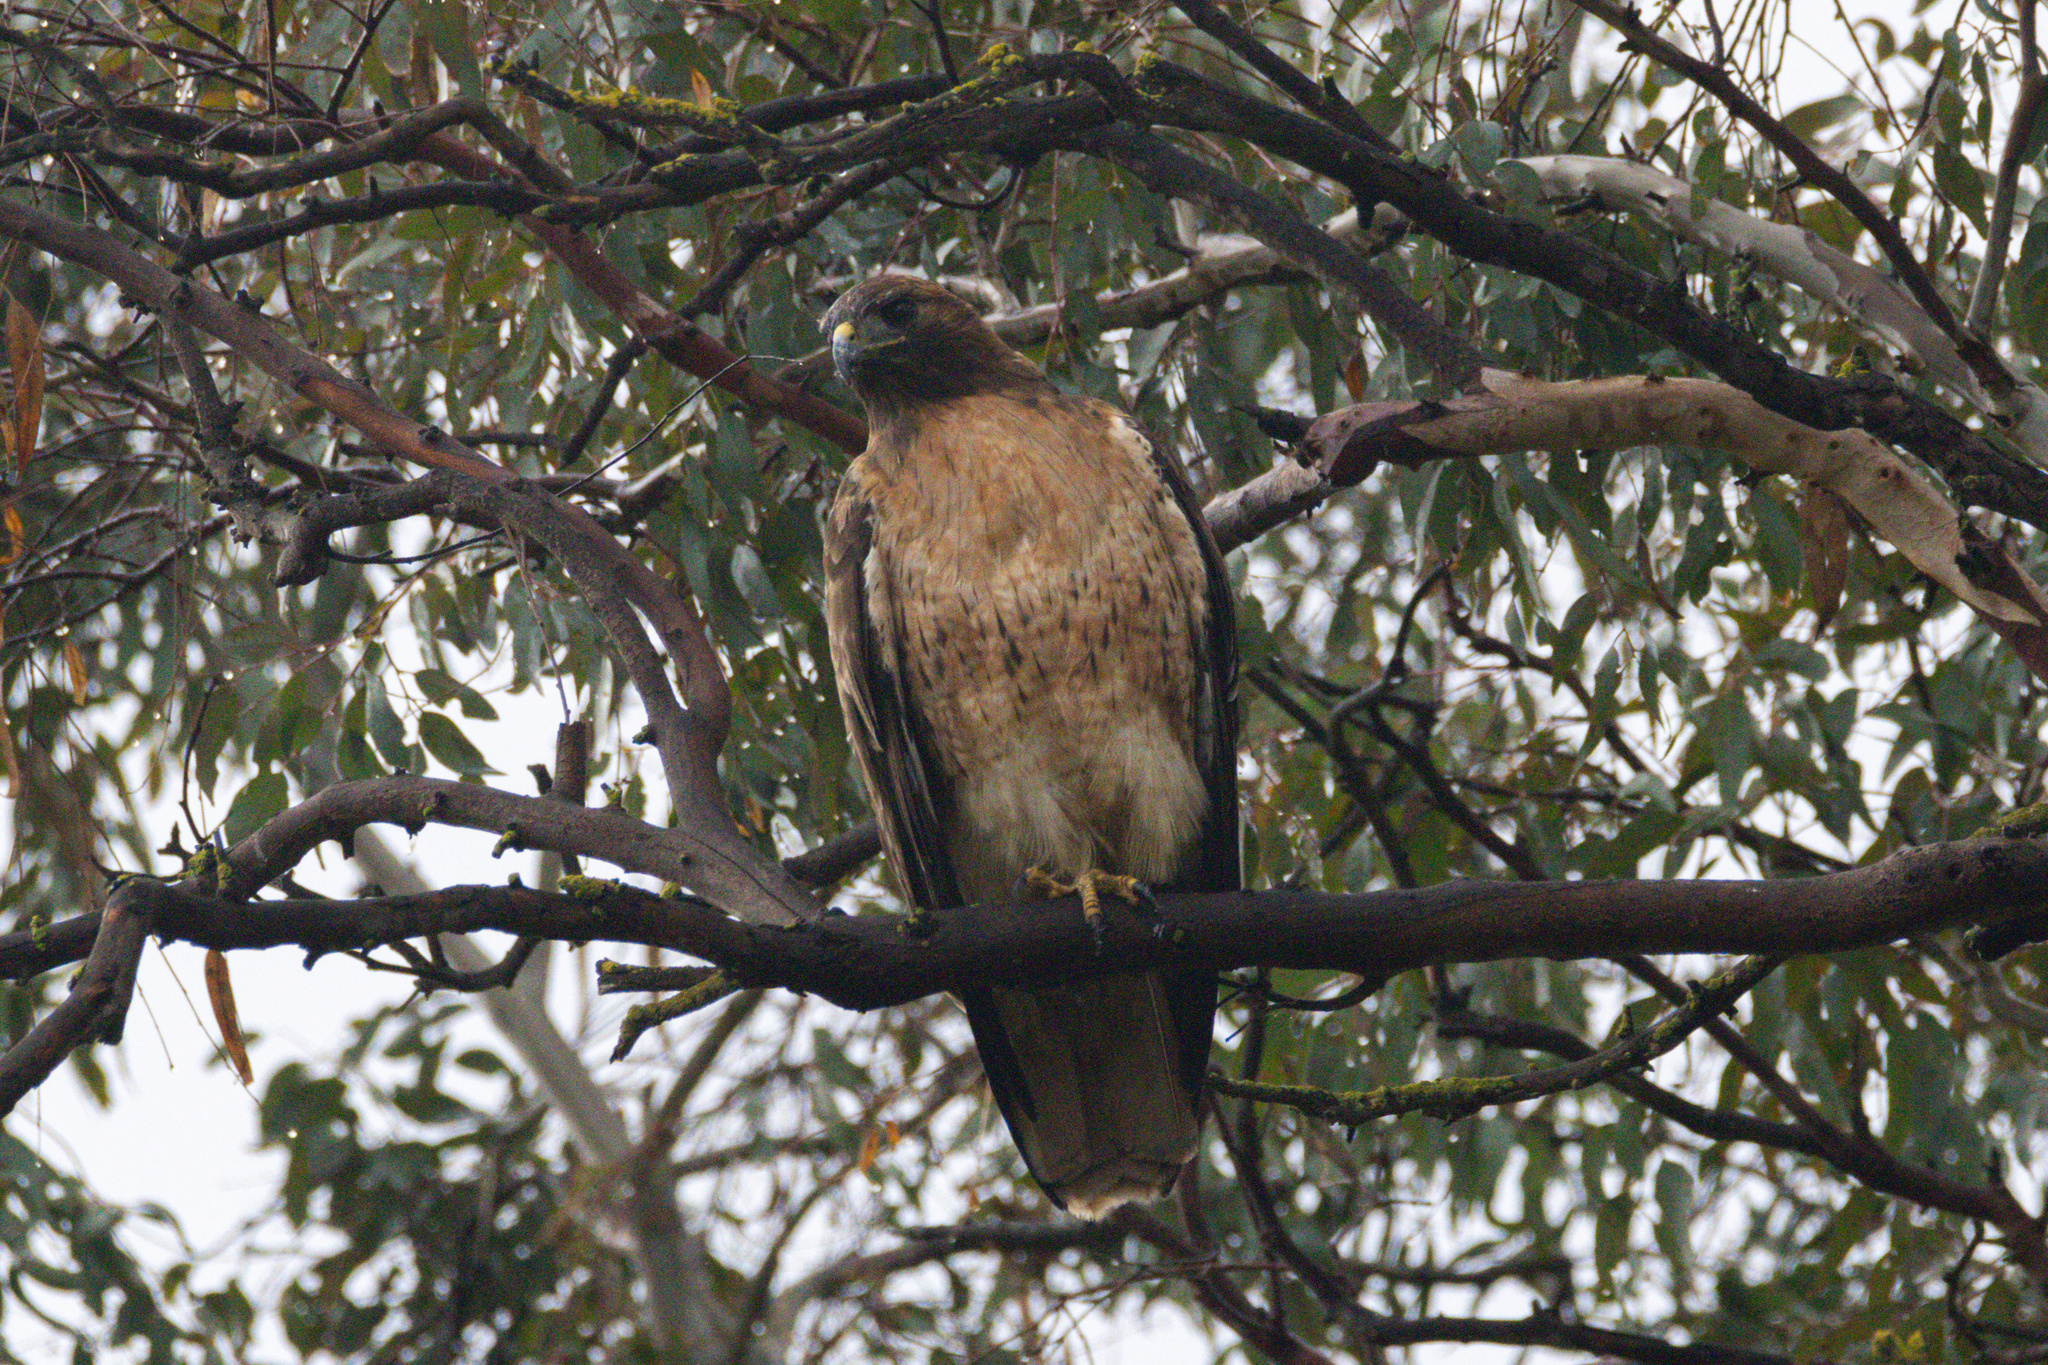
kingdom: Animalia
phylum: Chordata
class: Aves
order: Accipitriformes
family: Accipitridae
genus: Buteo
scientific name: Buteo jamaicensis
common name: Red-tailed hawk
